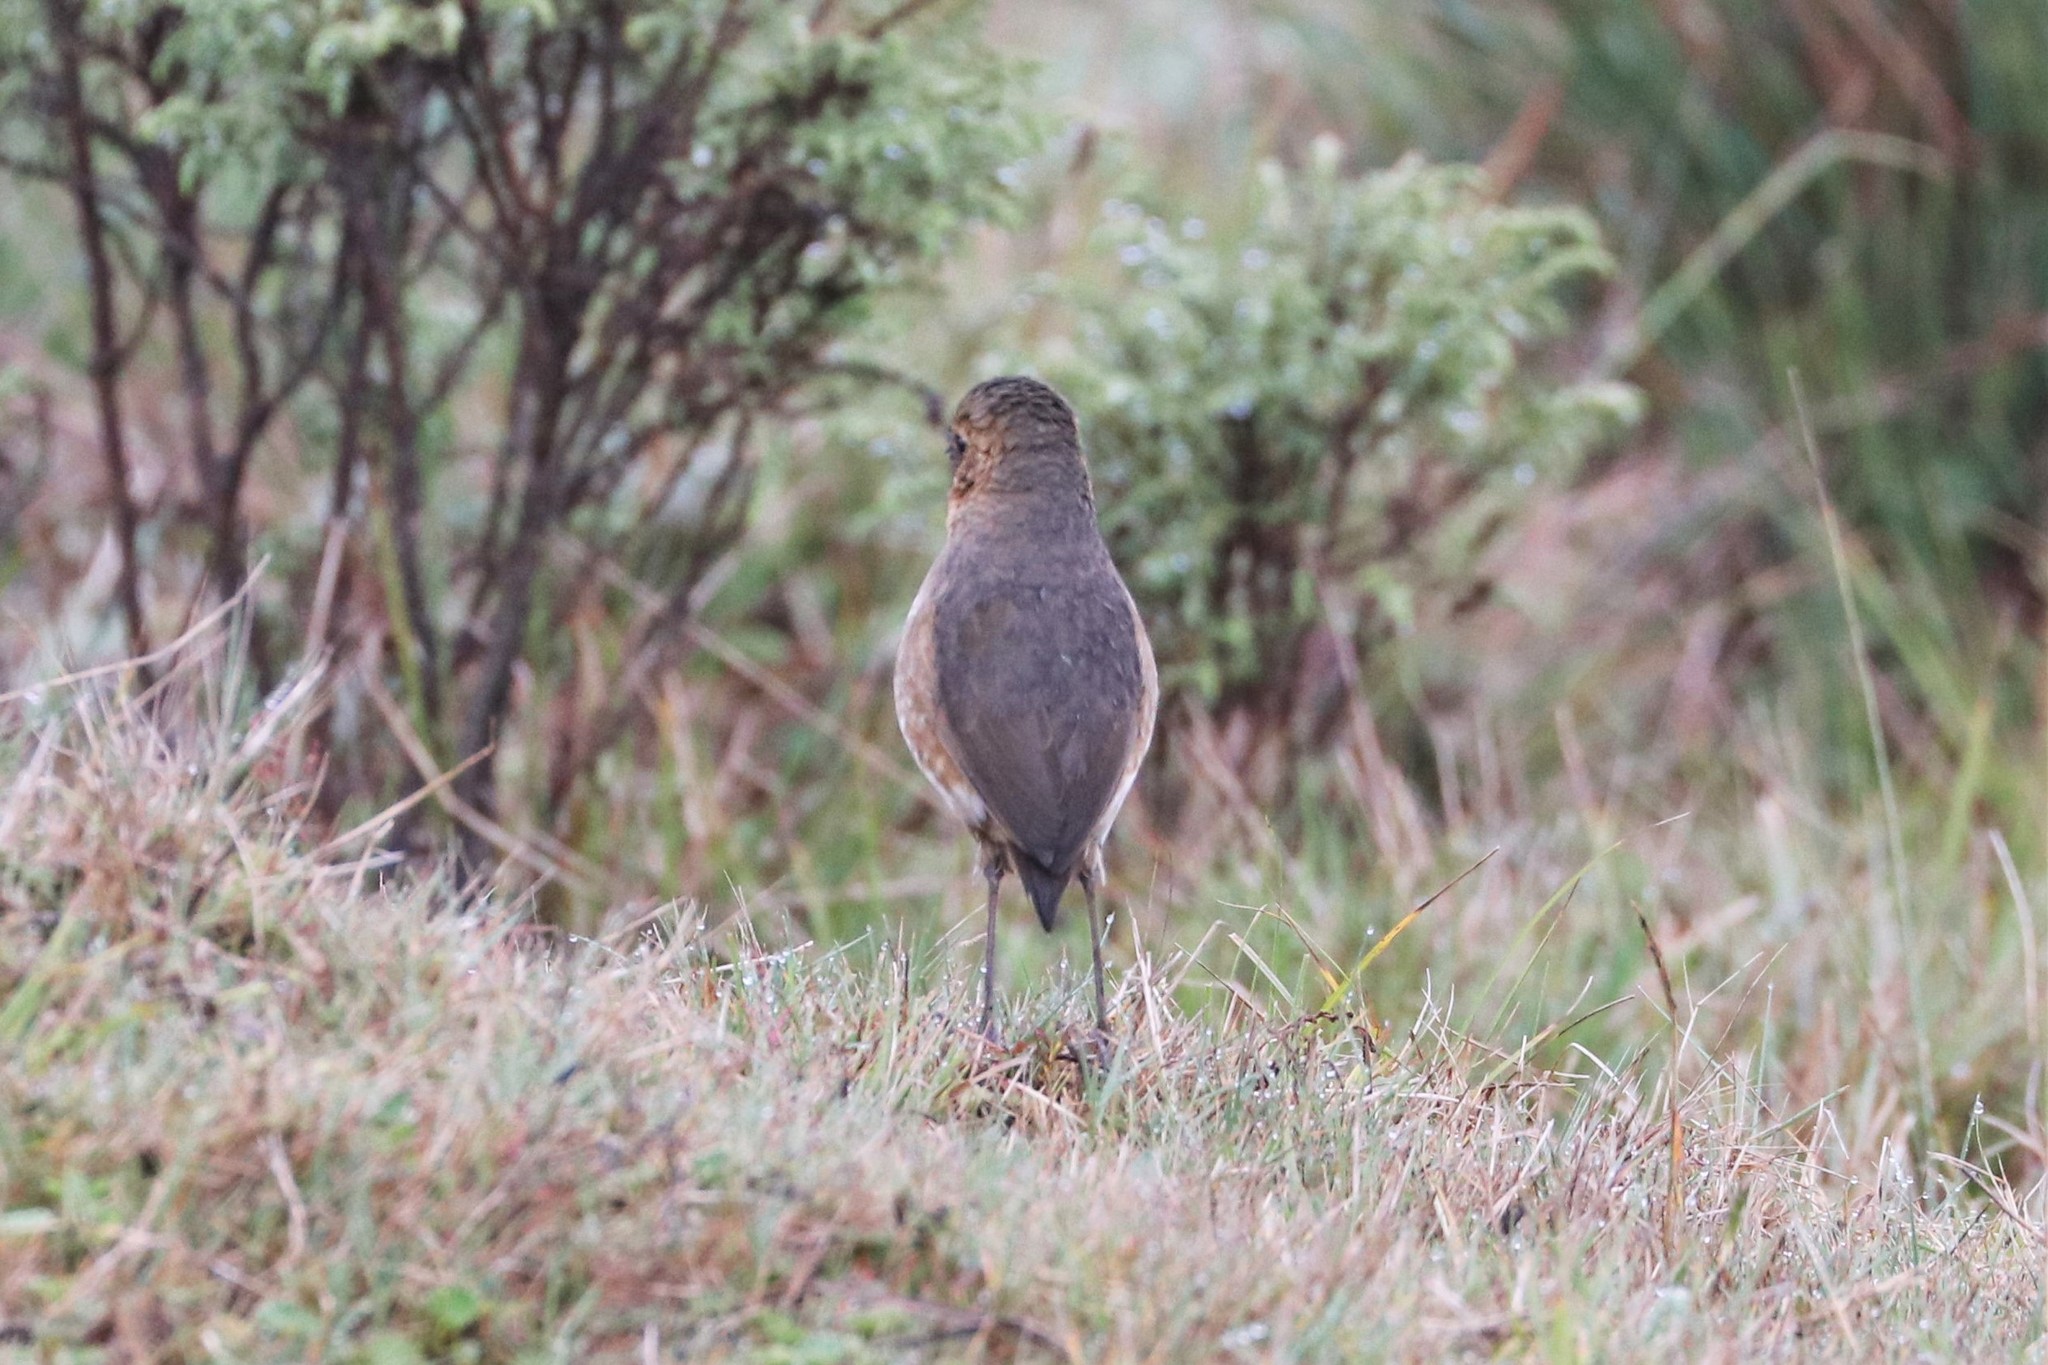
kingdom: Animalia
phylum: Chordata
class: Aves
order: Passeriformes
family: Grallariidae
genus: Grallaria
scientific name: Grallaria alticola
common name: Boyaca antpitta
